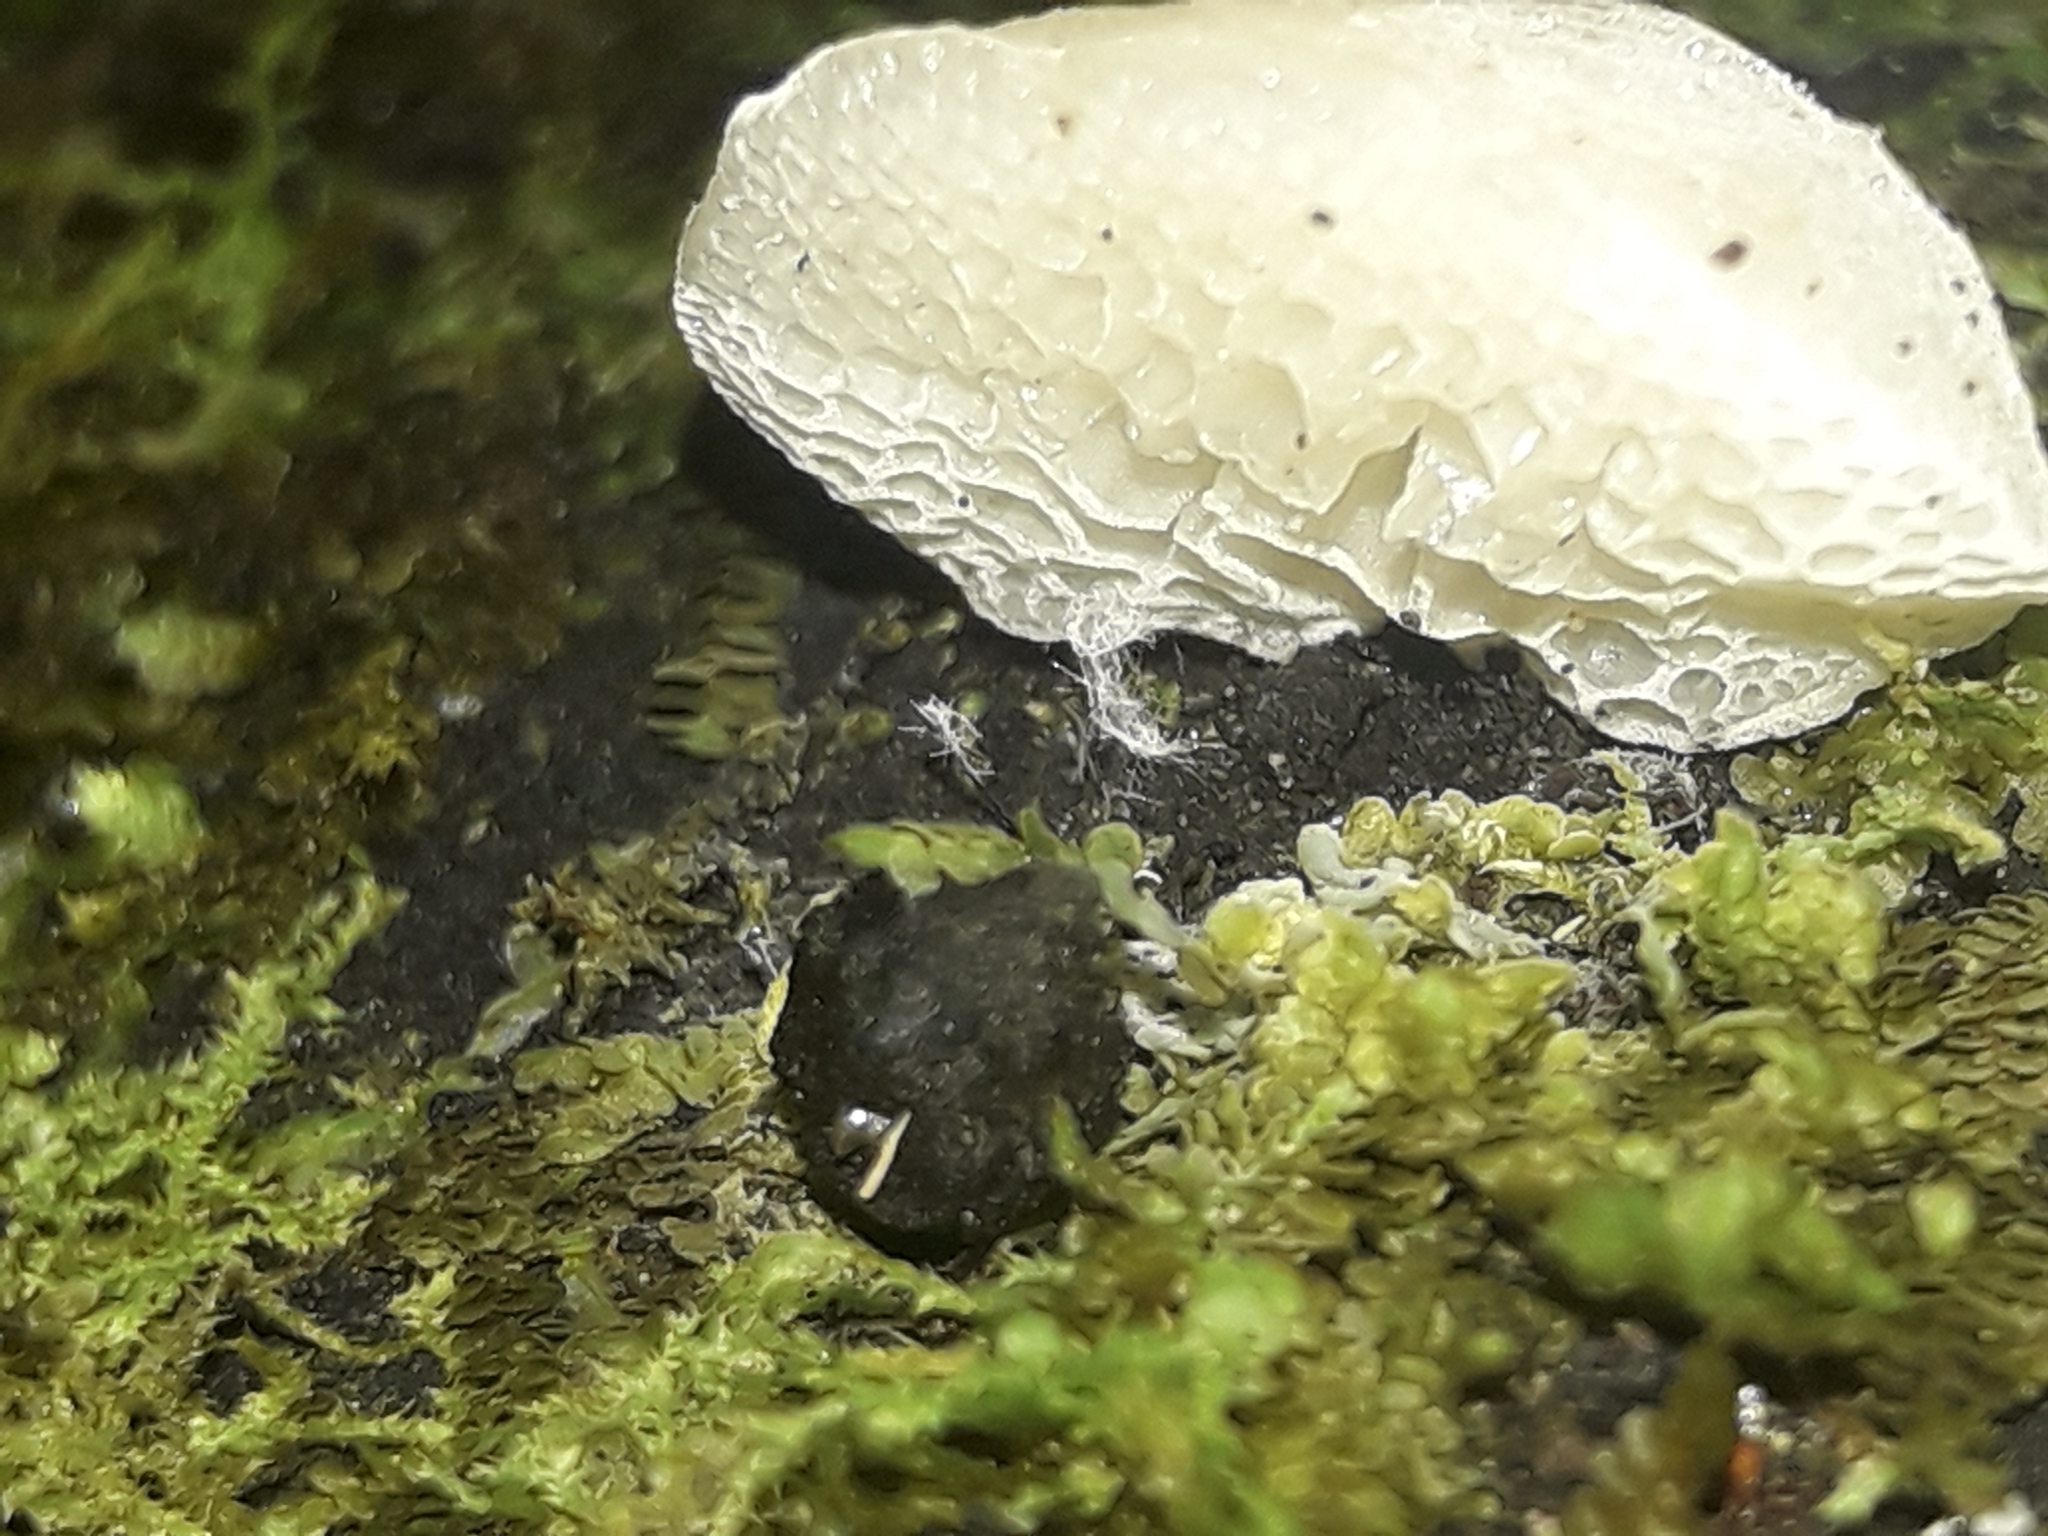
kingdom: Fungi
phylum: Basidiomycota
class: Agaricomycetes
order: Agaricales
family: Mycenaceae
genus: Favolaschia
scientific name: Favolaschia pustulosa
